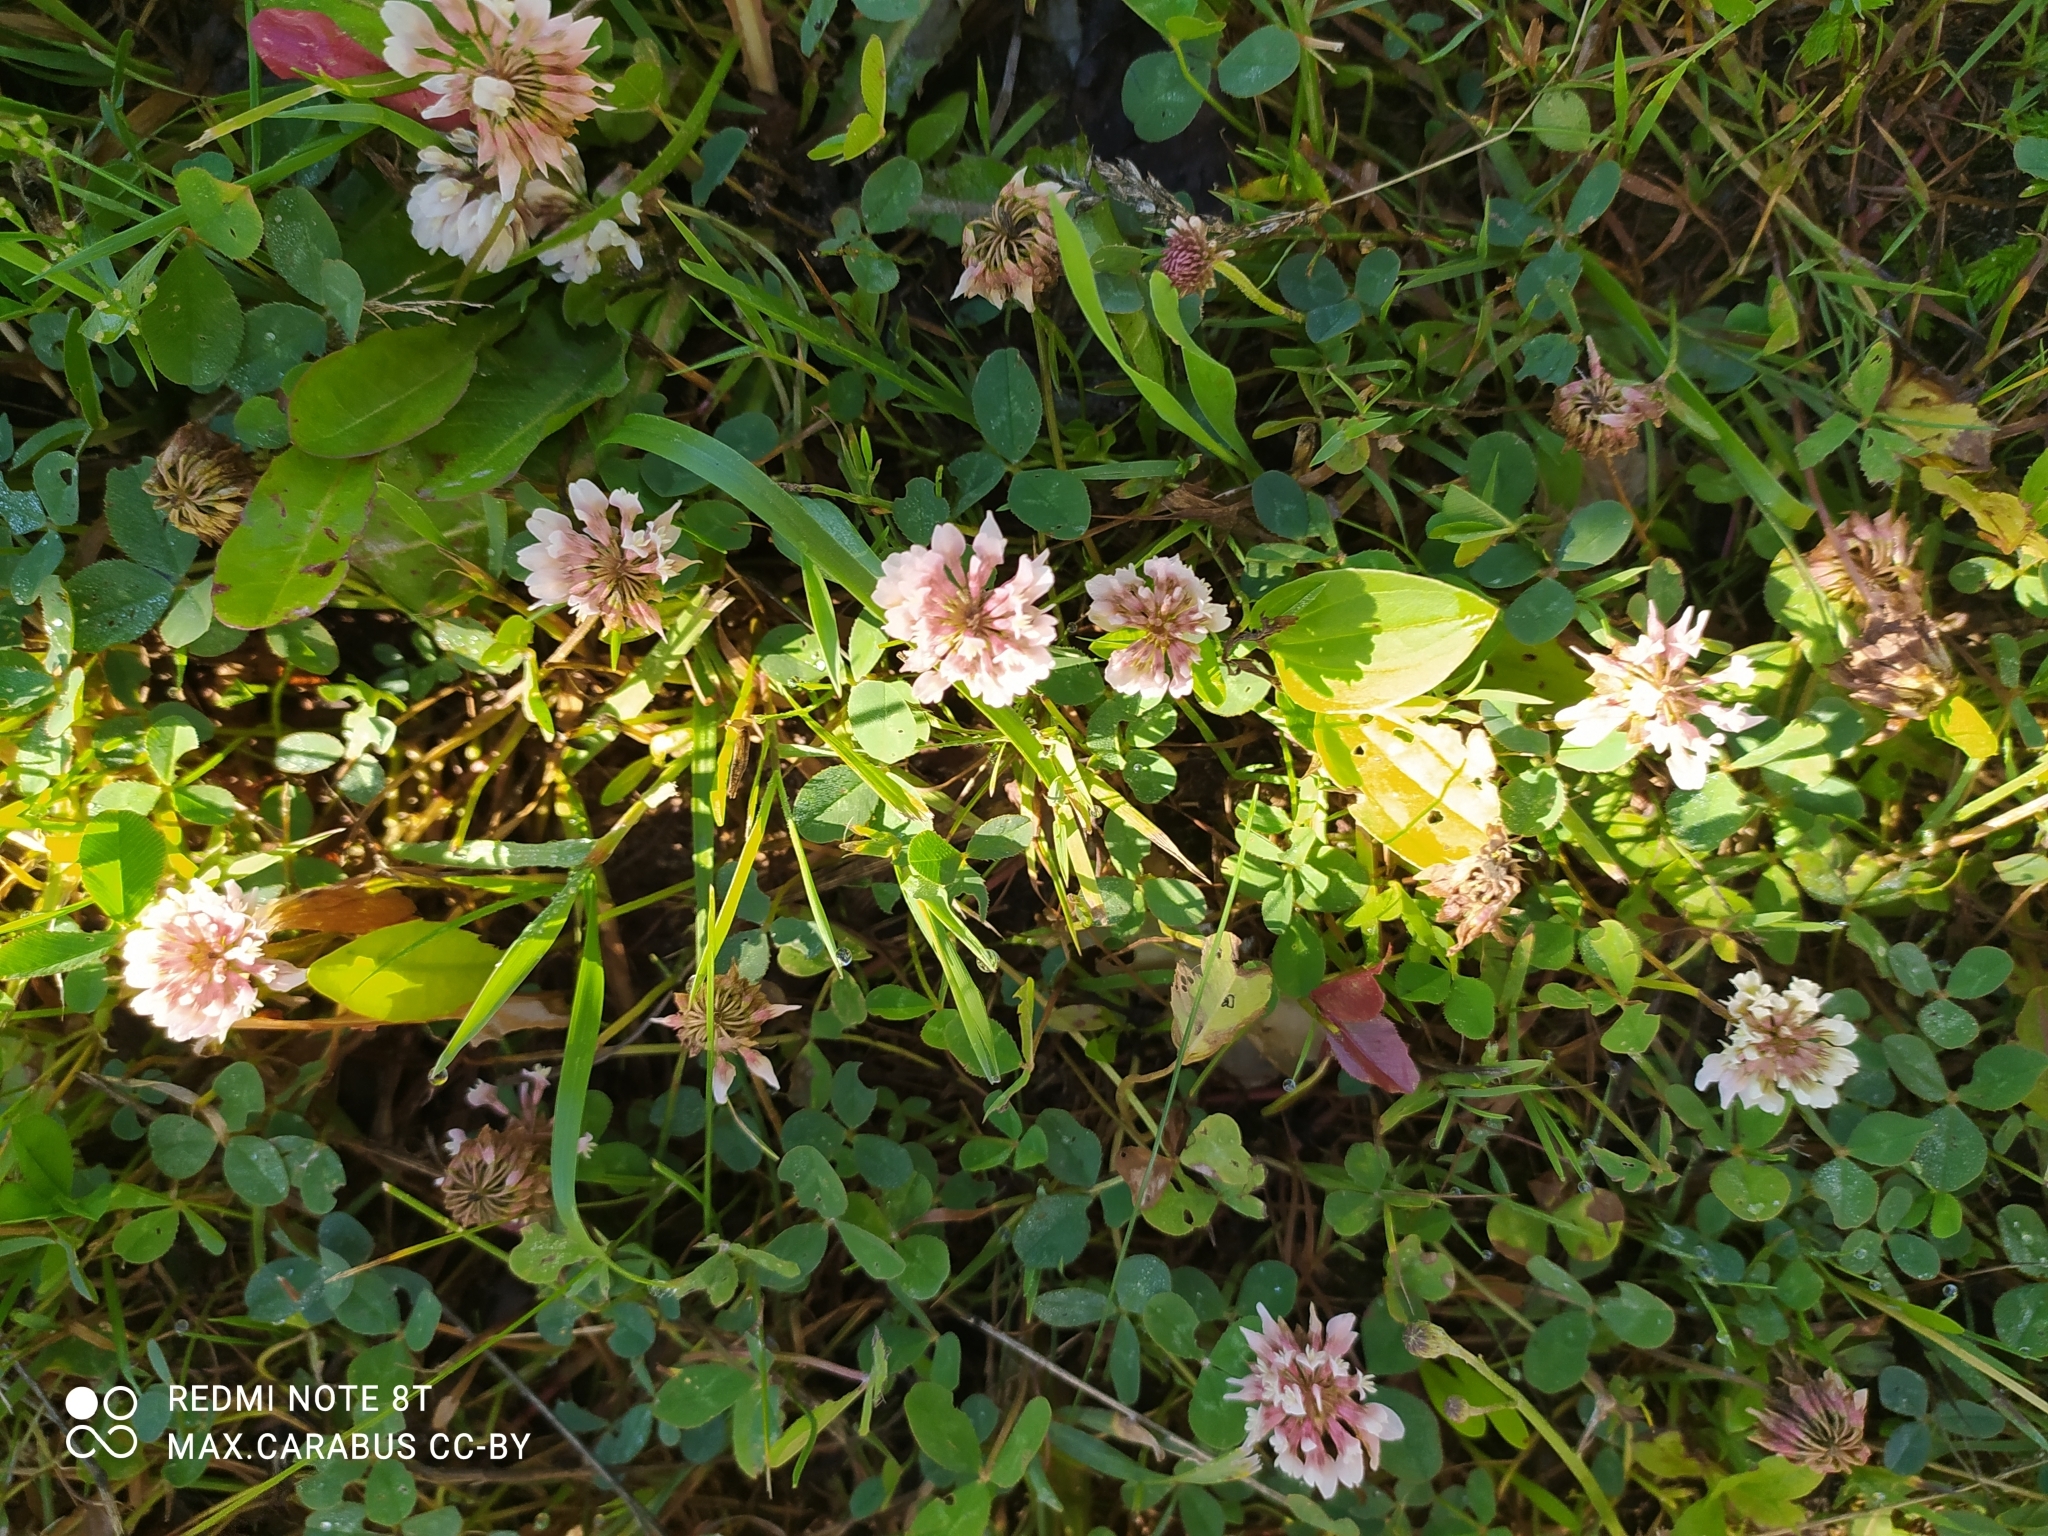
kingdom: Plantae
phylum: Tracheophyta
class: Magnoliopsida
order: Fabales
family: Fabaceae
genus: Trifolium
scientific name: Trifolium repens
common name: White clover
